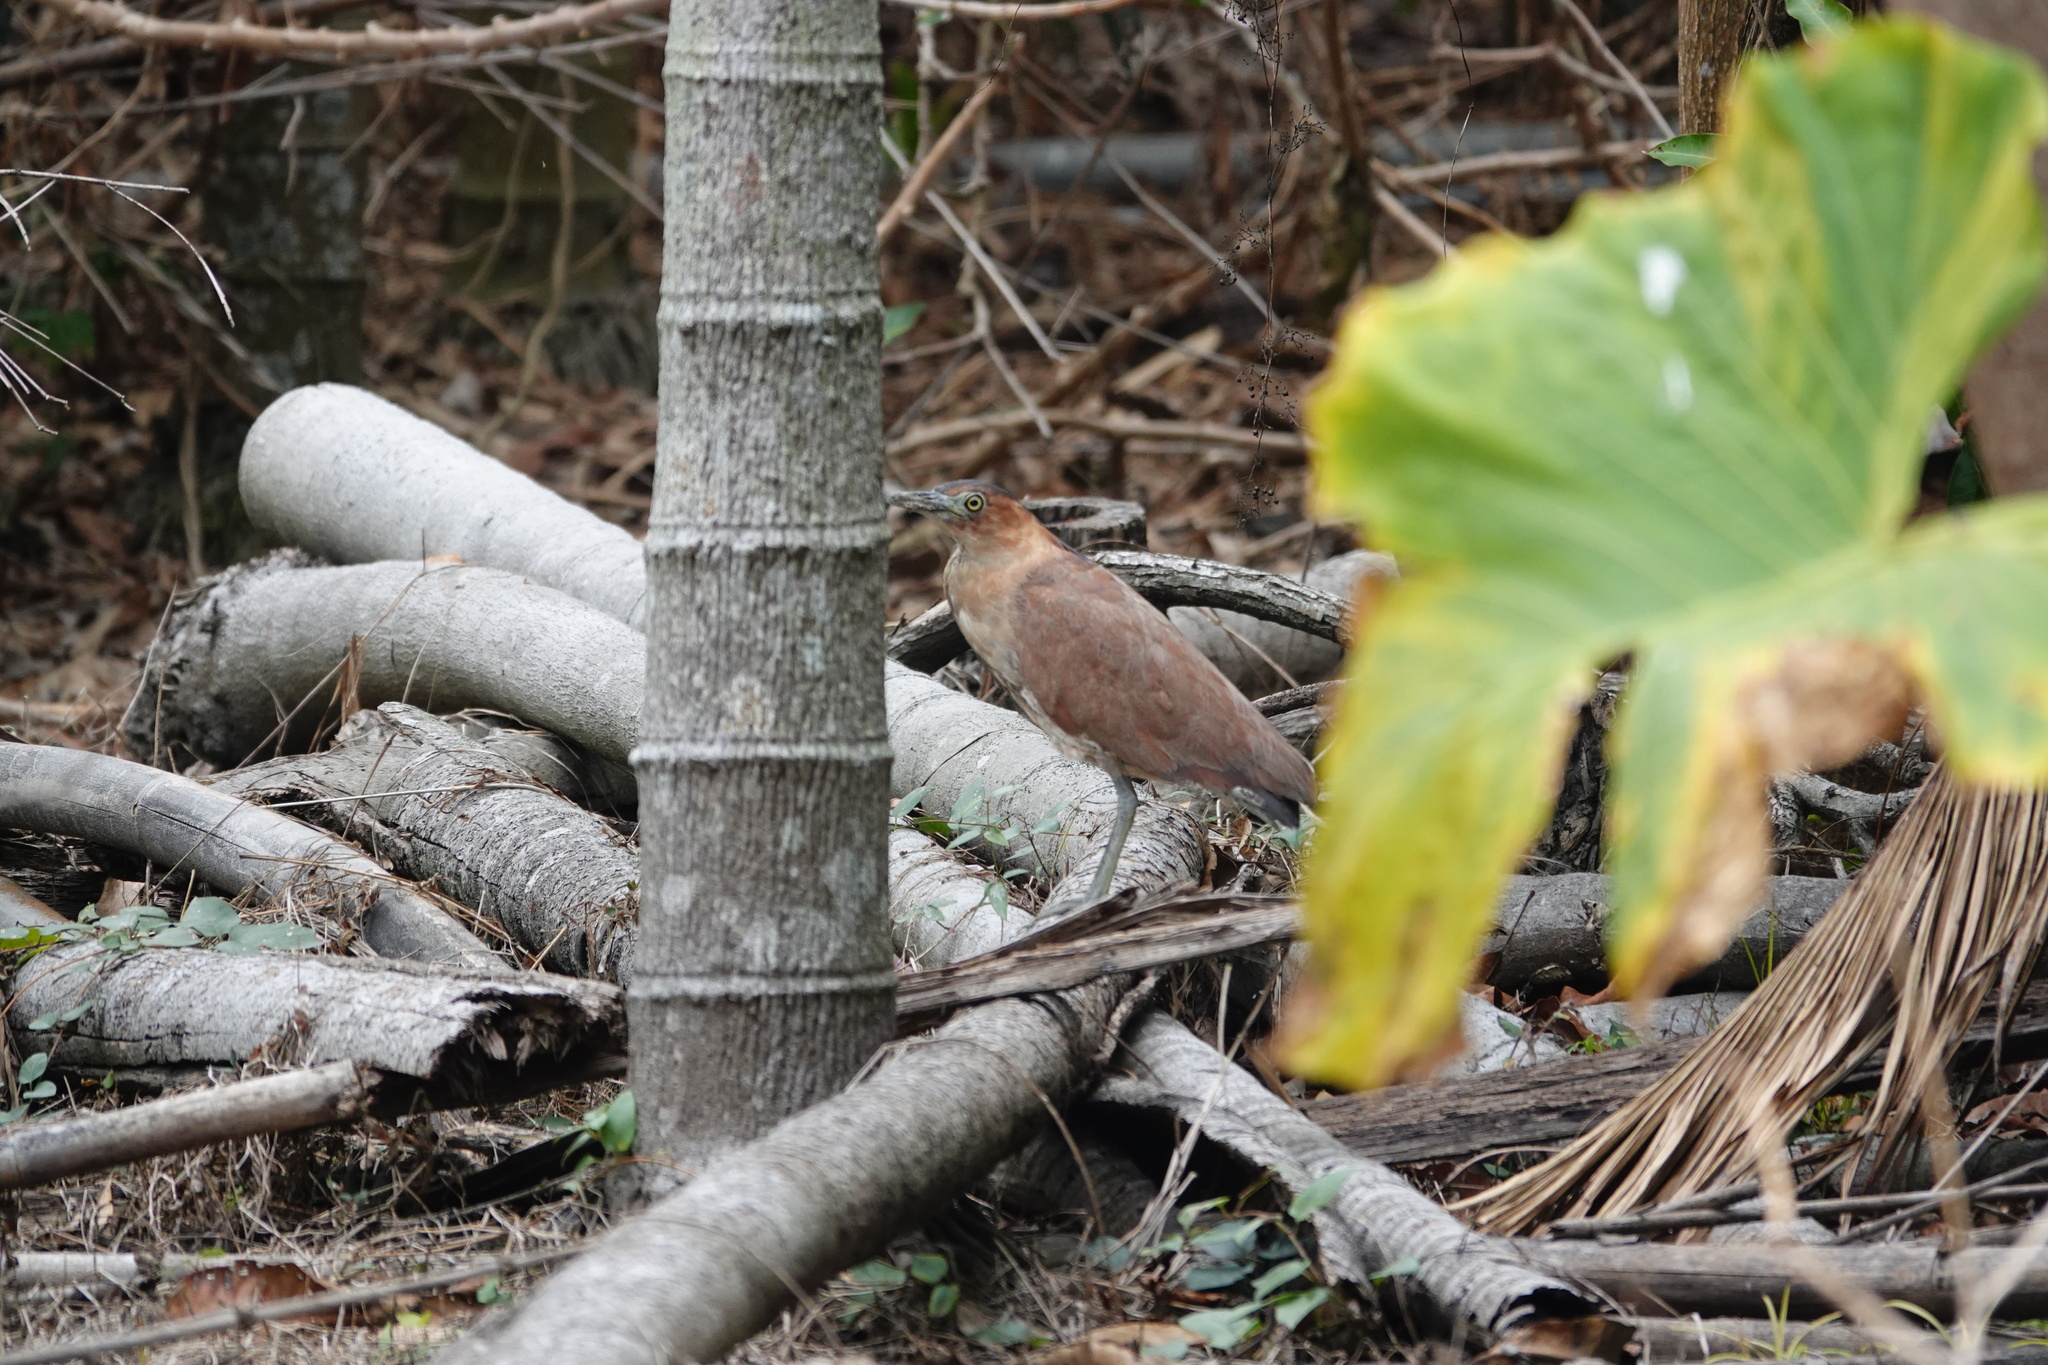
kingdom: Animalia
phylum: Chordata
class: Aves
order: Pelecaniformes
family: Ardeidae
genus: Gorsachius
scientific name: Gorsachius melanolophus
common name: Malayan night heron
